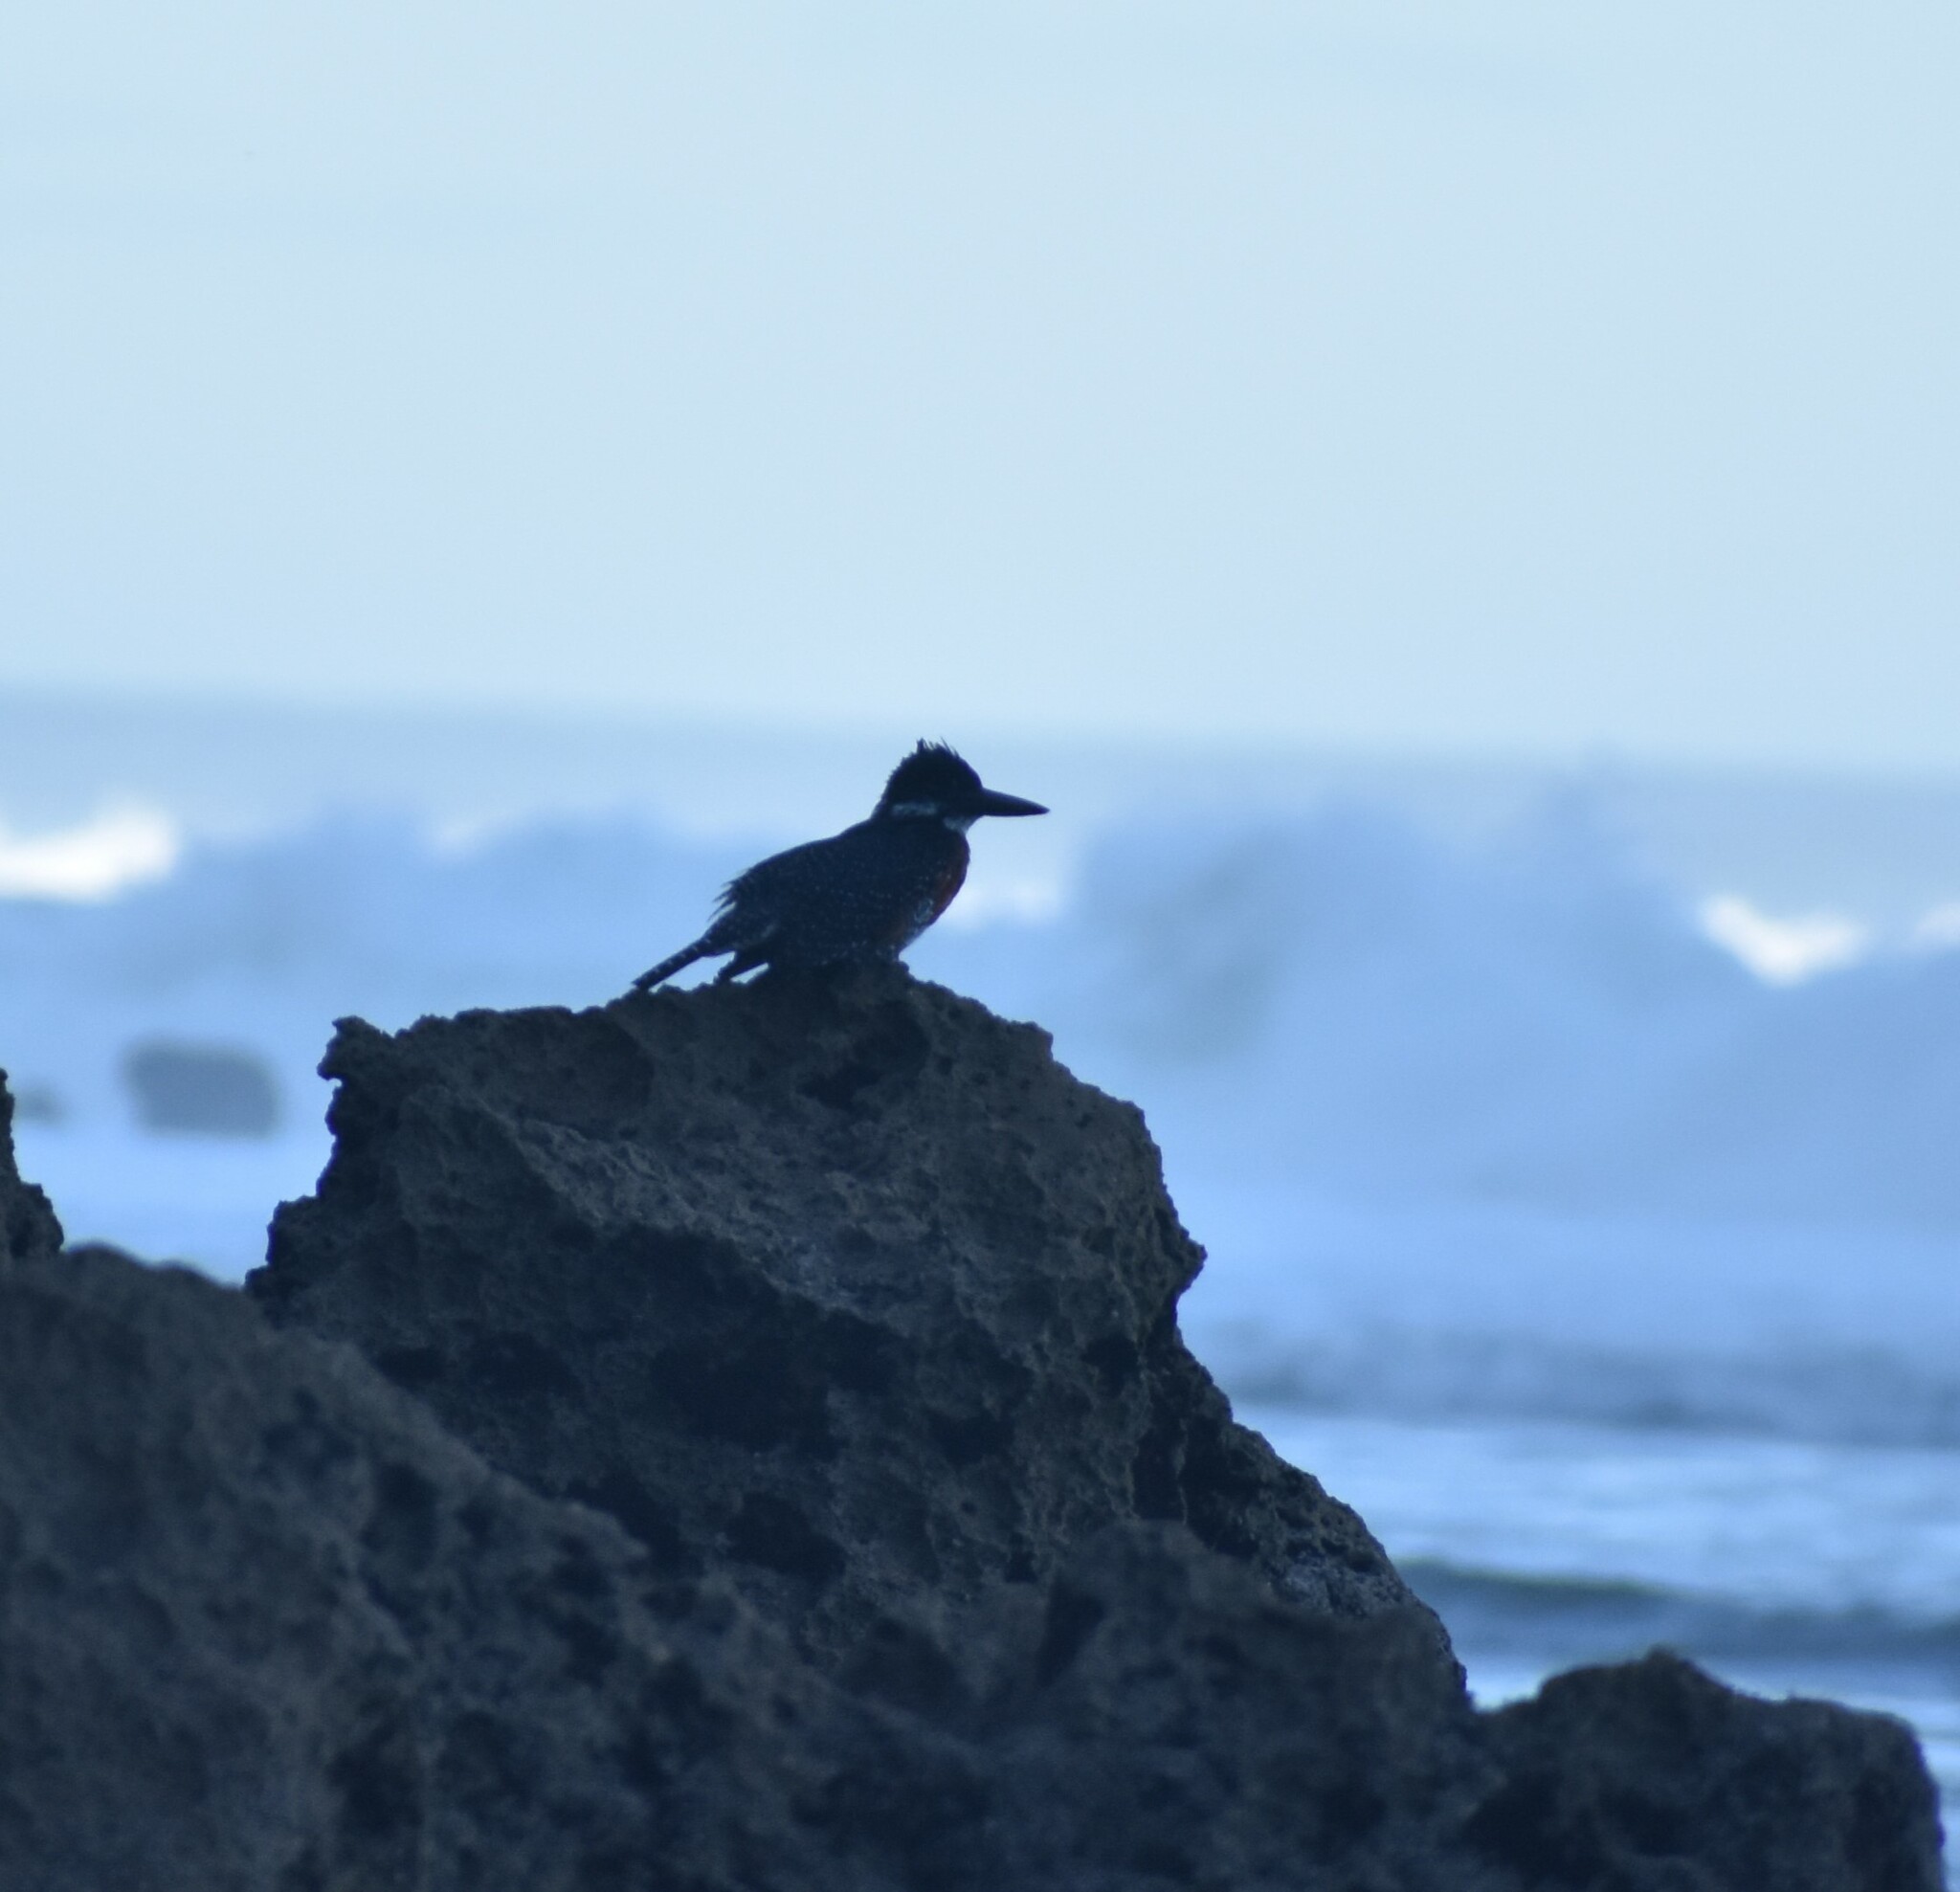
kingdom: Animalia
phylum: Chordata
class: Aves
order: Coraciiformes
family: Alcedinidae
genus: Megaceryle
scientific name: Megaceryle maxima
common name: Giant kingfisher
